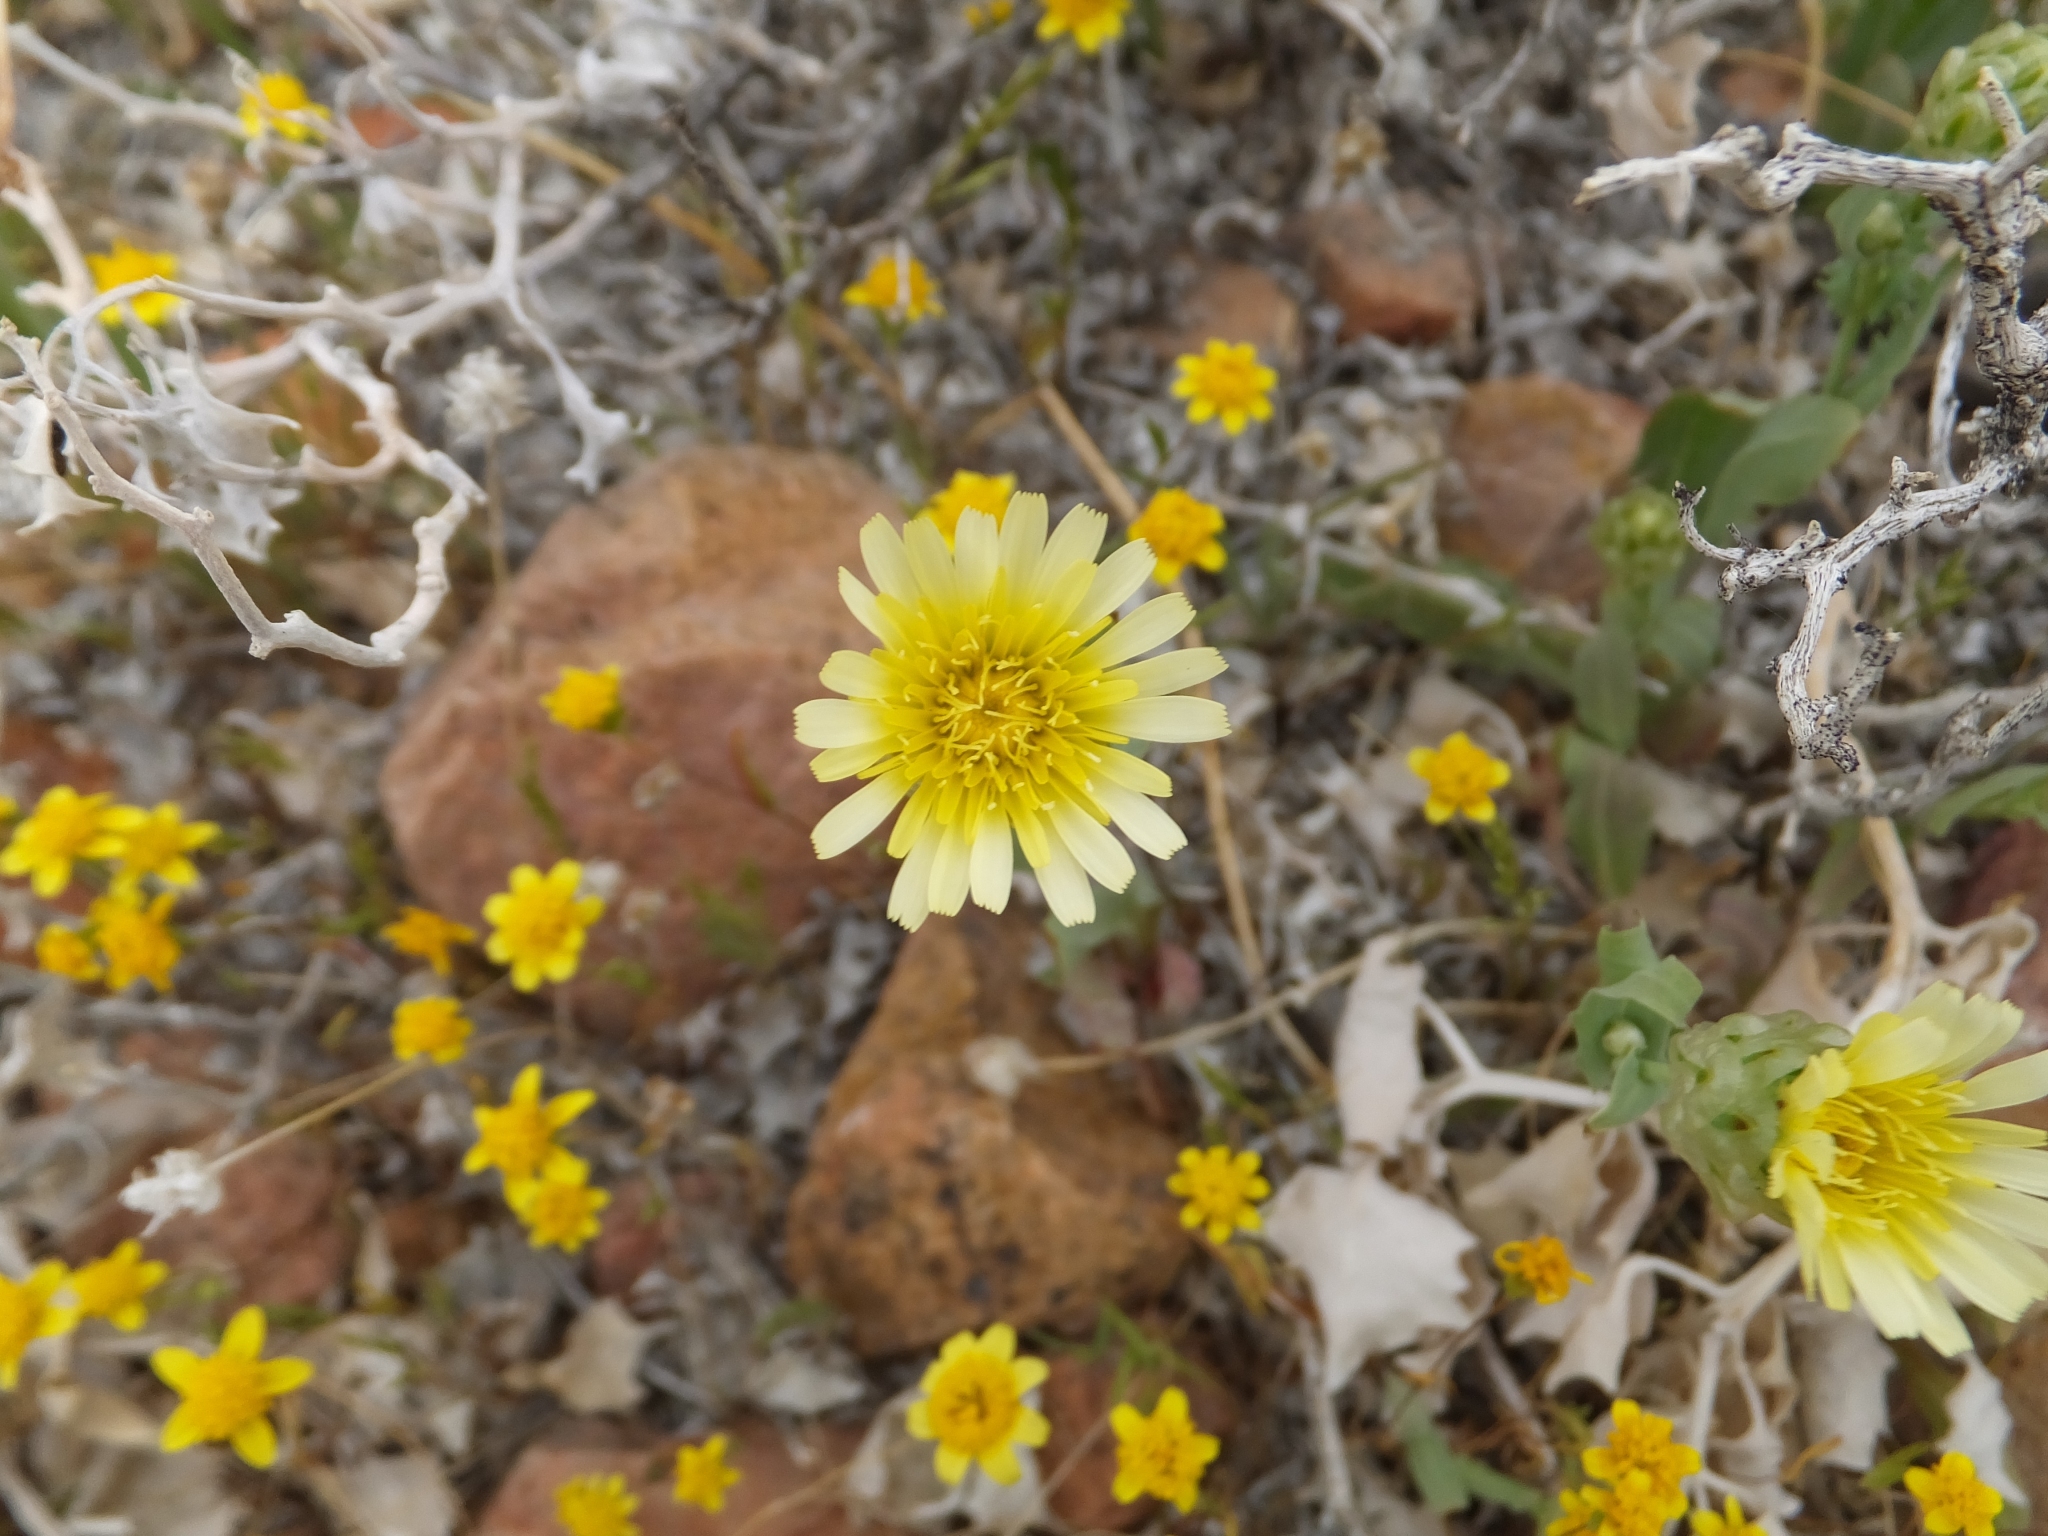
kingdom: Plantae
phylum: Tracheophyta
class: Magnoliopsida
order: Asterales
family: Asteraceae
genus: Malacothrix
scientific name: Malacothrix glabrata
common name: Smooth desert-dandelion
